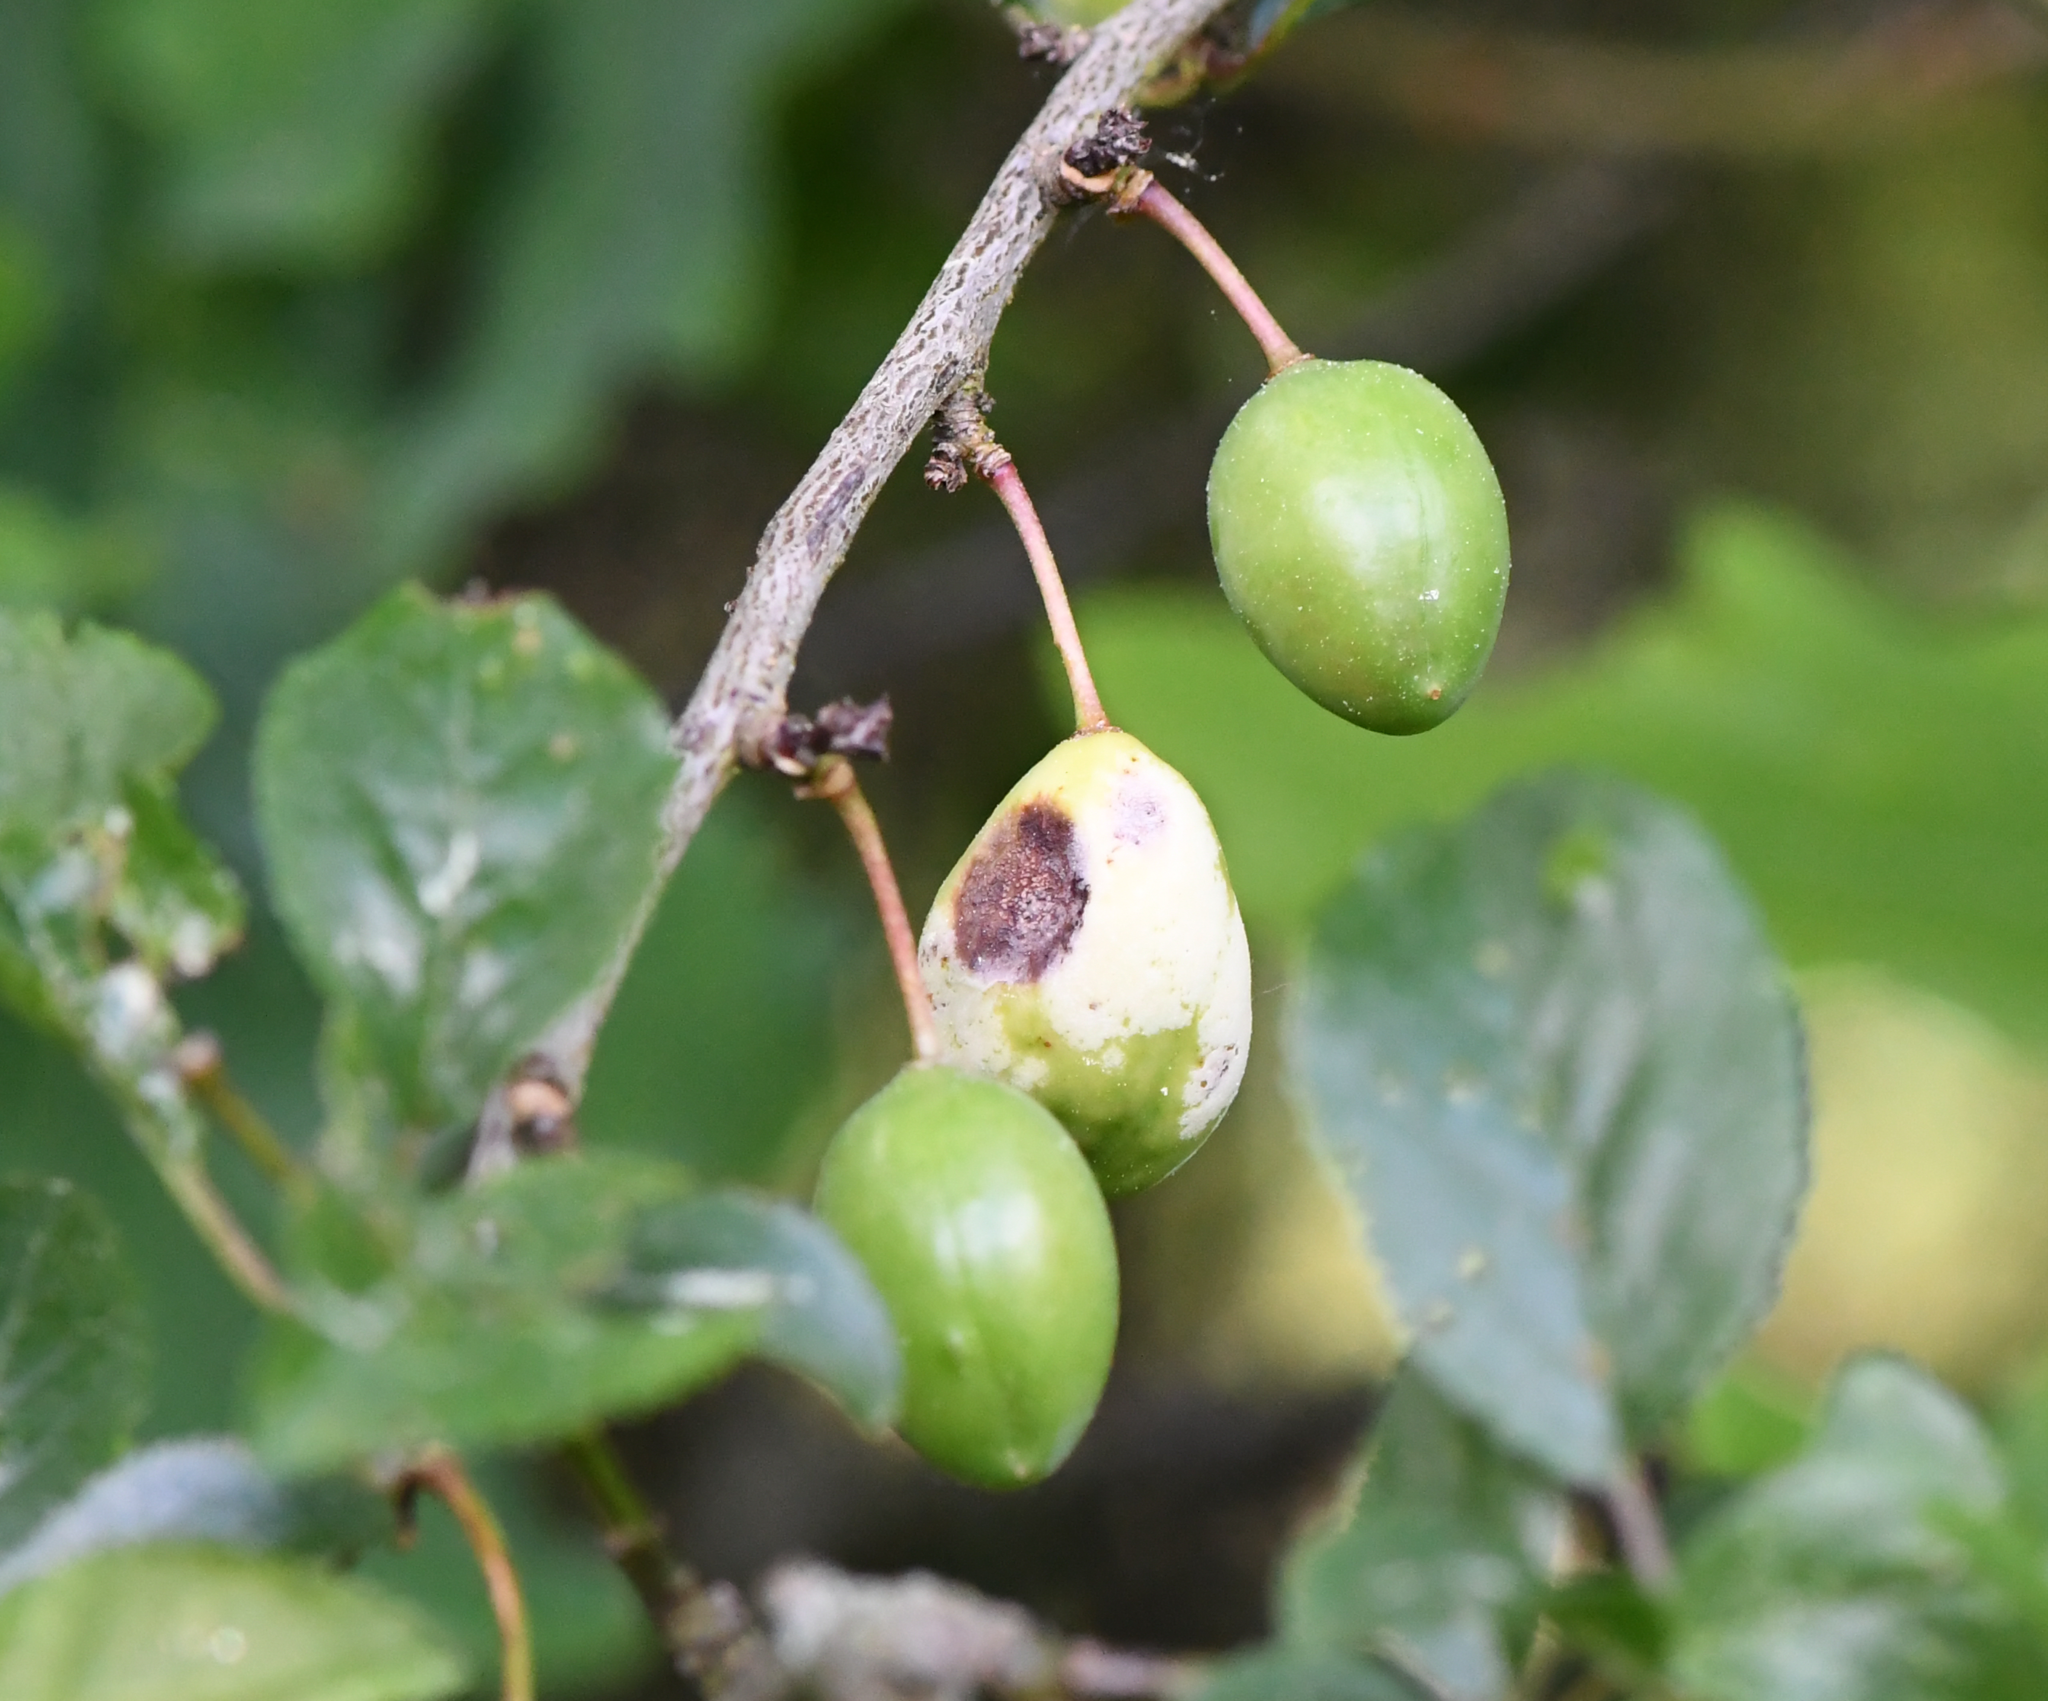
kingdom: Fungi
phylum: Ascomycota
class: Taphrinomycetes
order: Taphrinales
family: Taphrinaceae
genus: Taphrina
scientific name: Taphrina pruni
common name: Pocket plum
